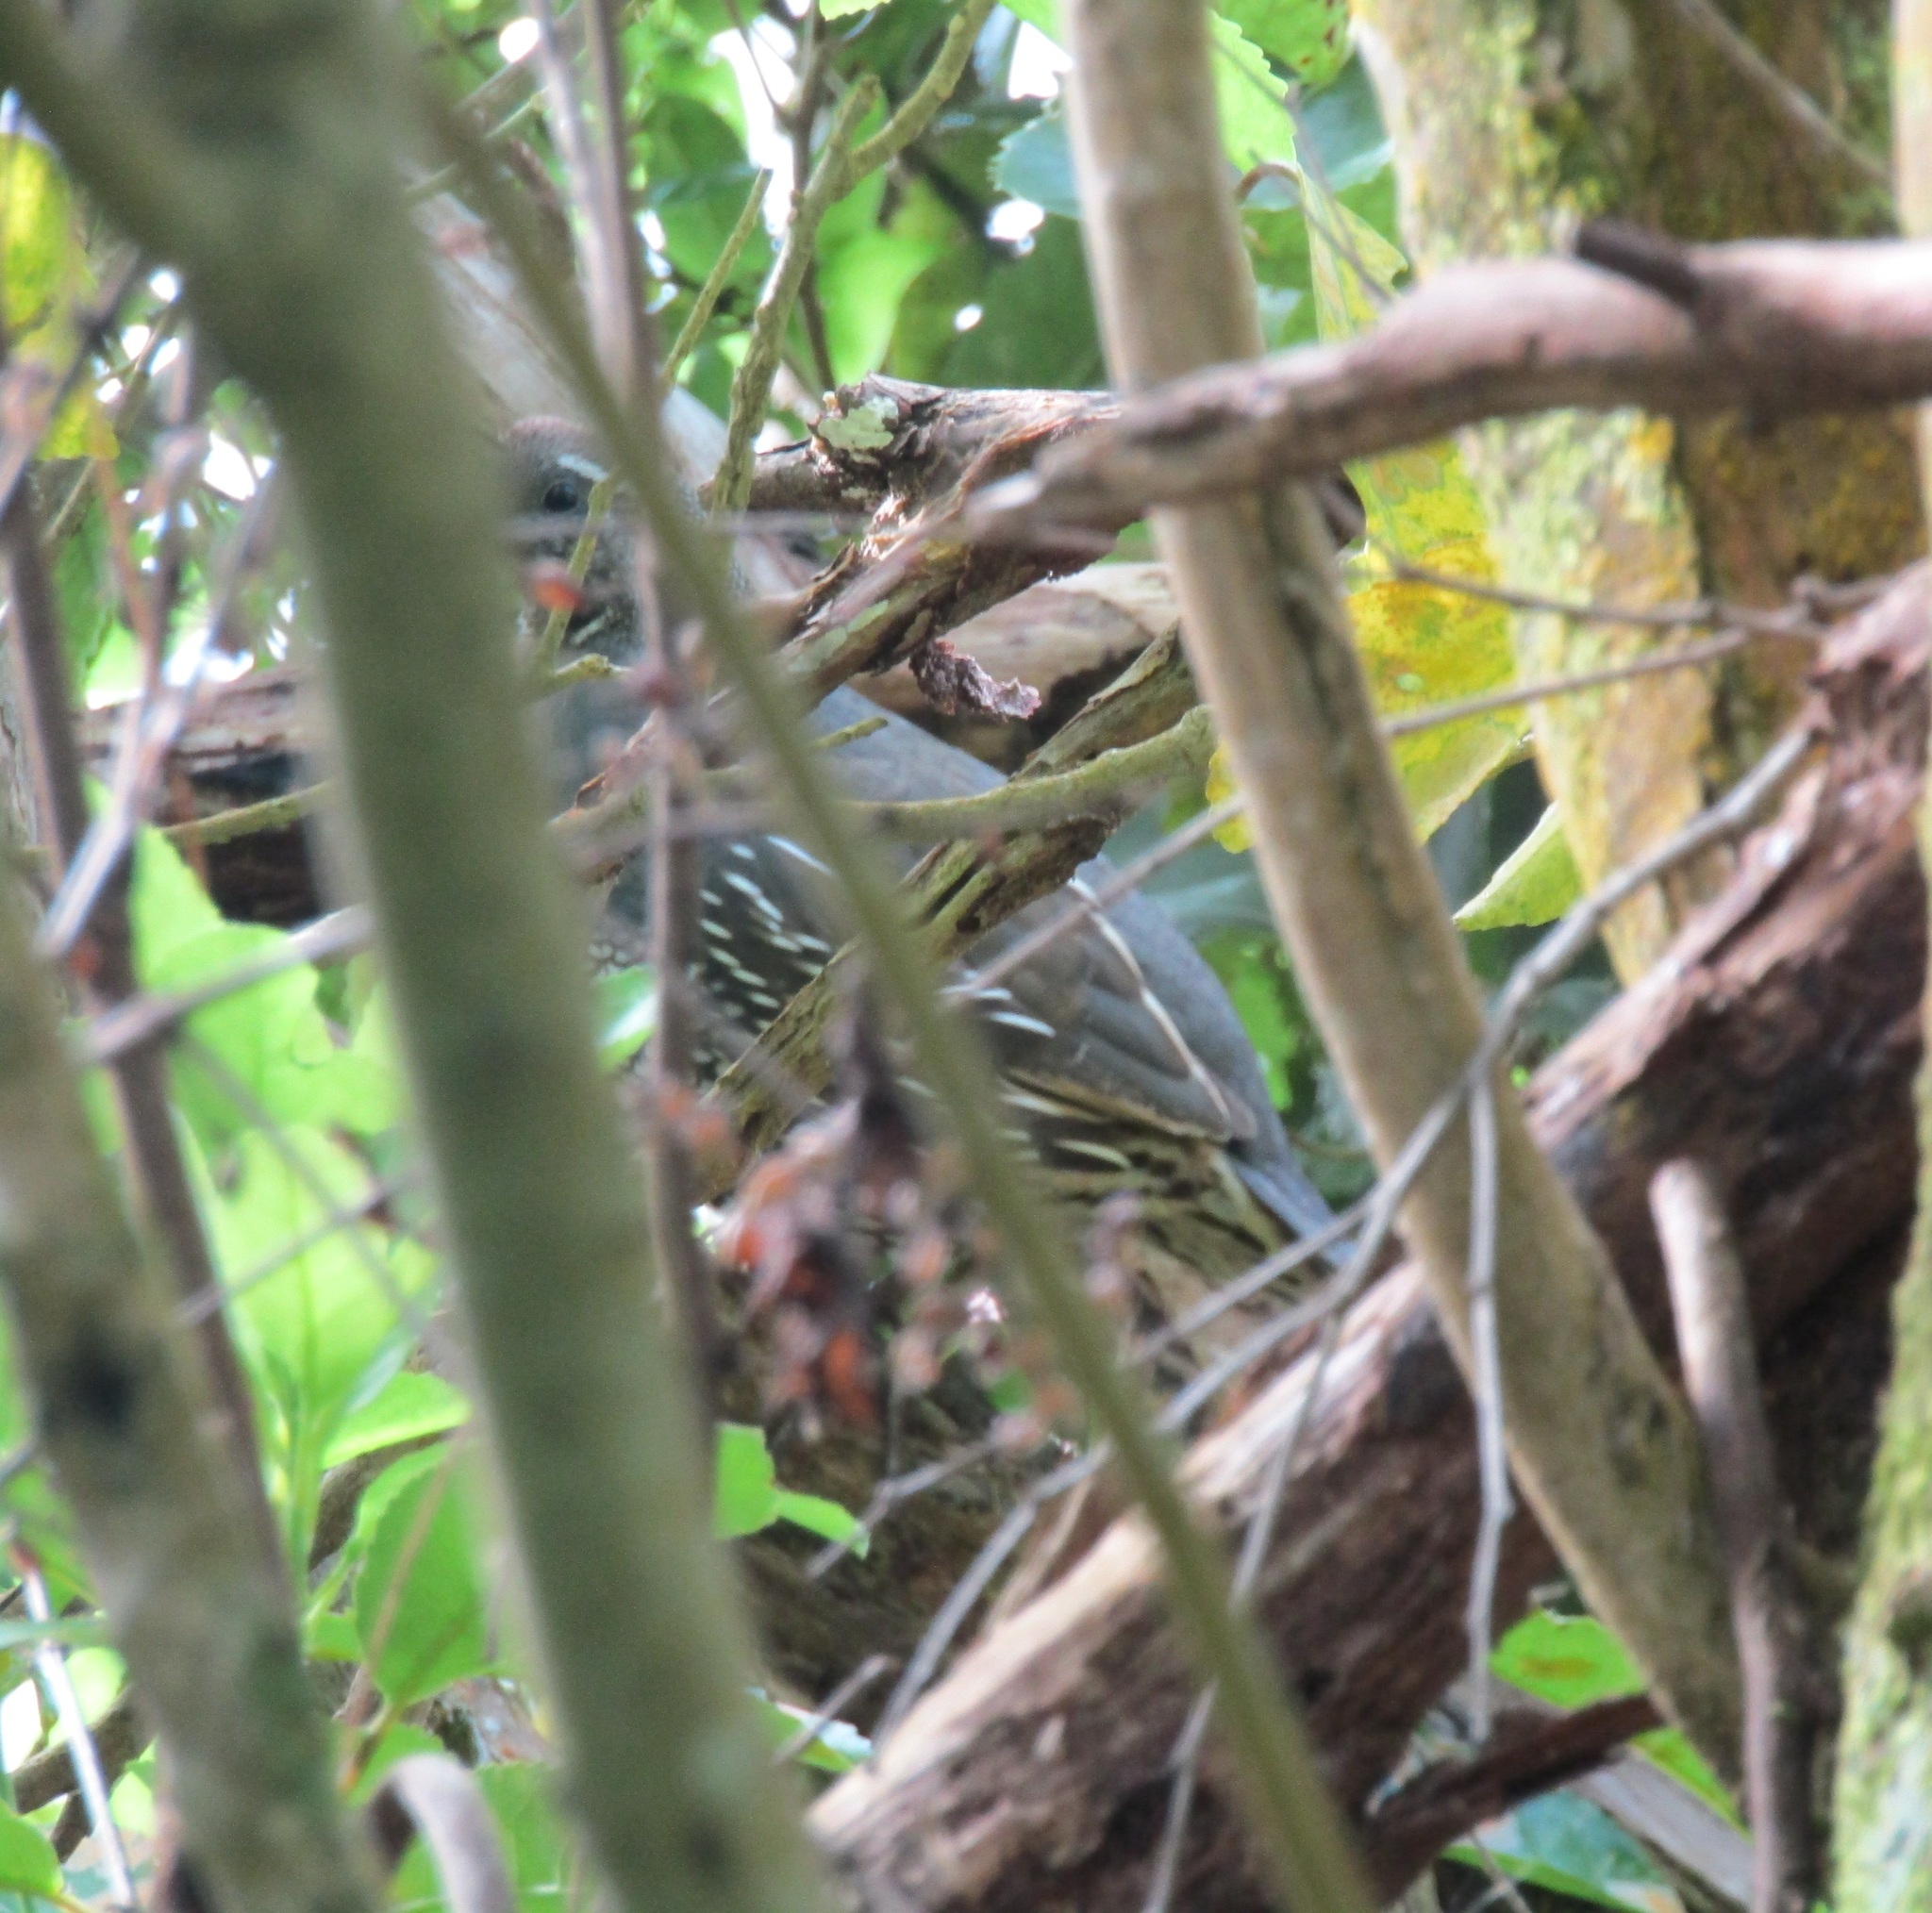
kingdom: Animalia
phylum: Chordata
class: Aves
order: Galliformes
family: Odontophoridae
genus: Callipepla
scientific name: Callipepla californica
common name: California quail
